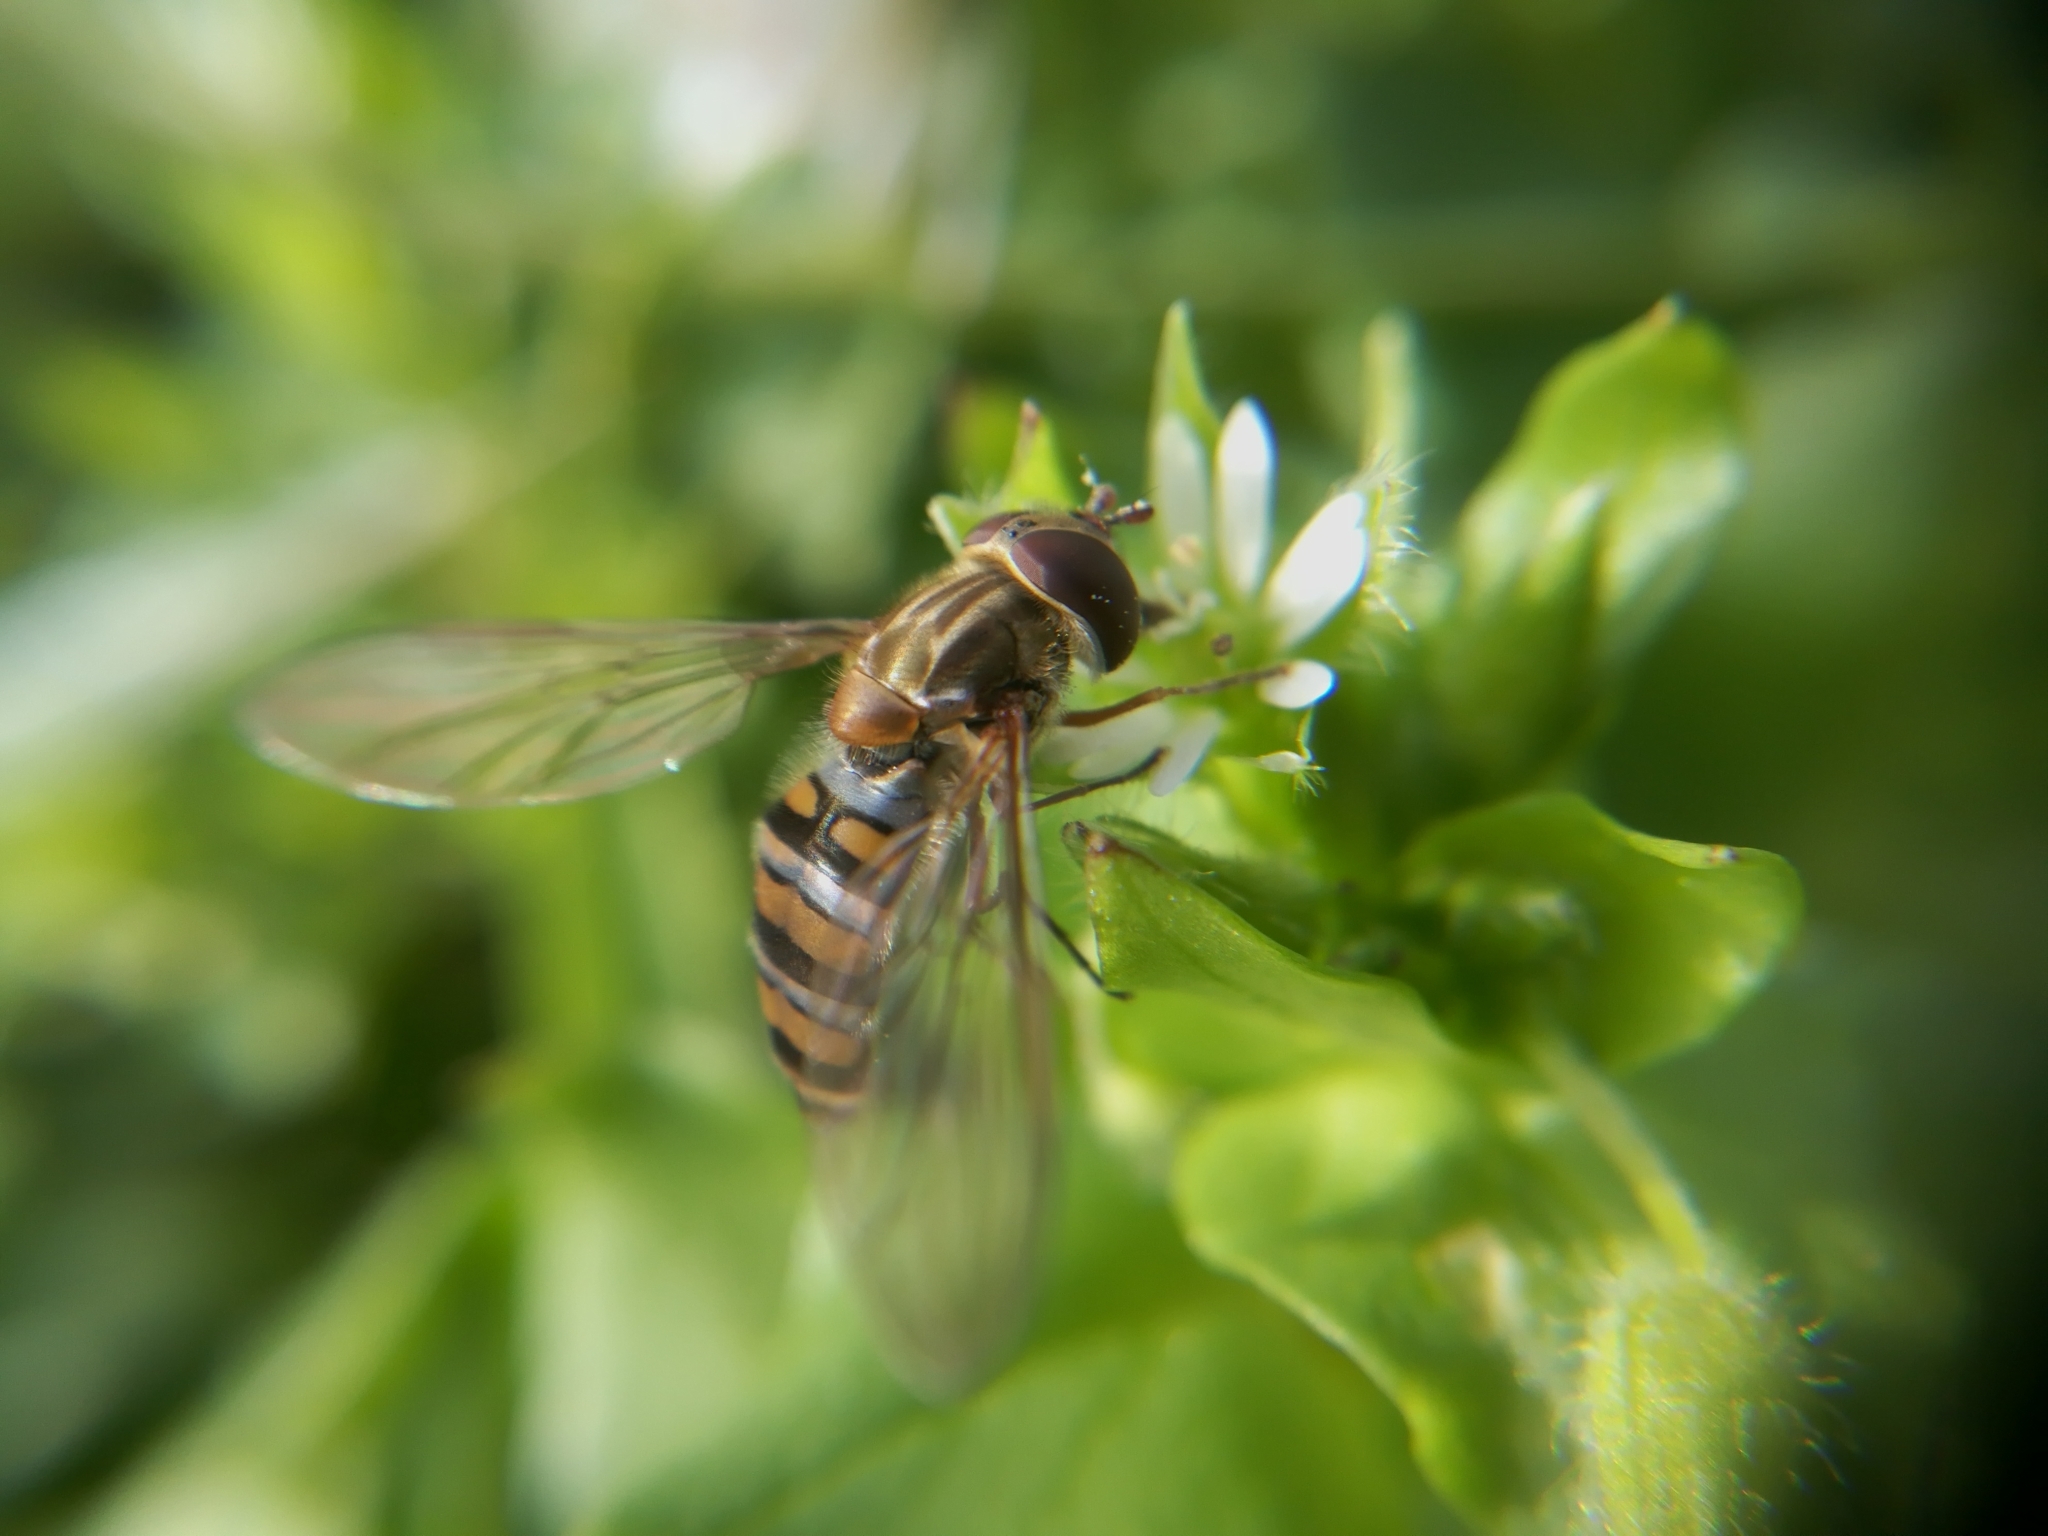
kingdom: Animalia
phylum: Arthropoda
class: Insecta
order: Diptera
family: Syrphidae
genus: Episyrphus
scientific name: Episyrphus balteatus
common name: Marmalade hoverfly
